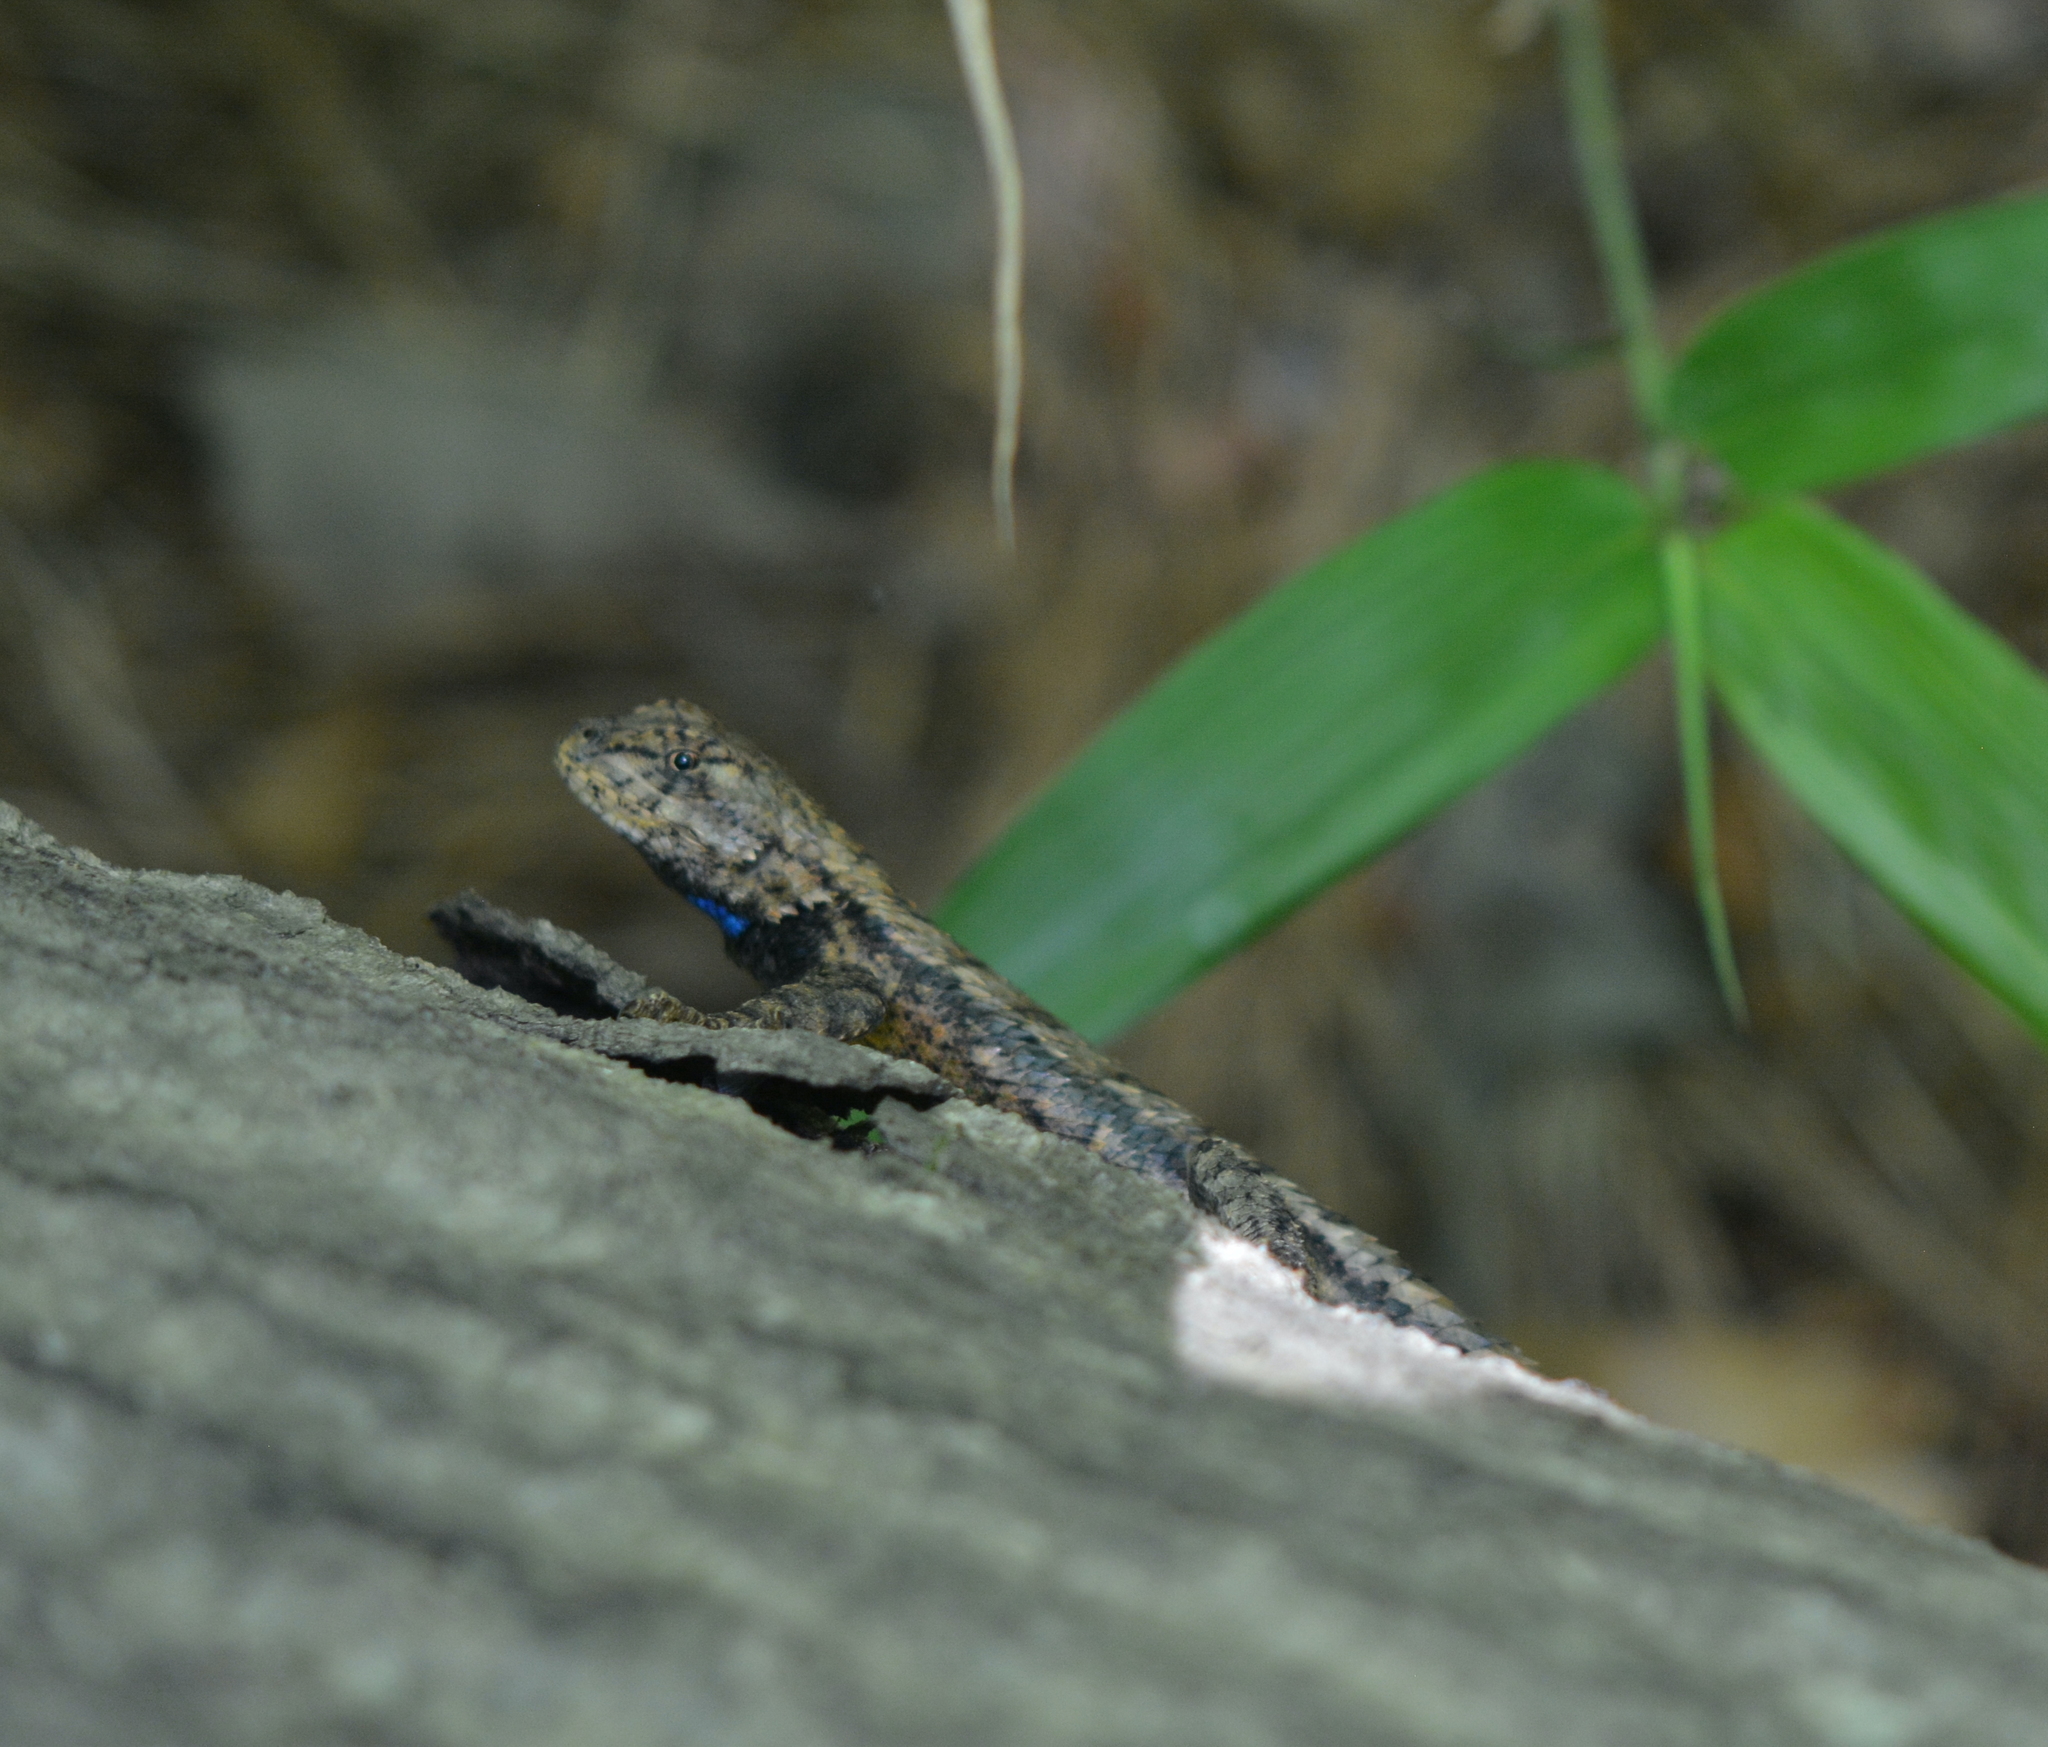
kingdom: Animalia
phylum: Chordata
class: Squamata
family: Phrynosomatidae
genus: Sceloporus
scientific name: Sceloporus consobrinus
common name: Southern prairie lizard
